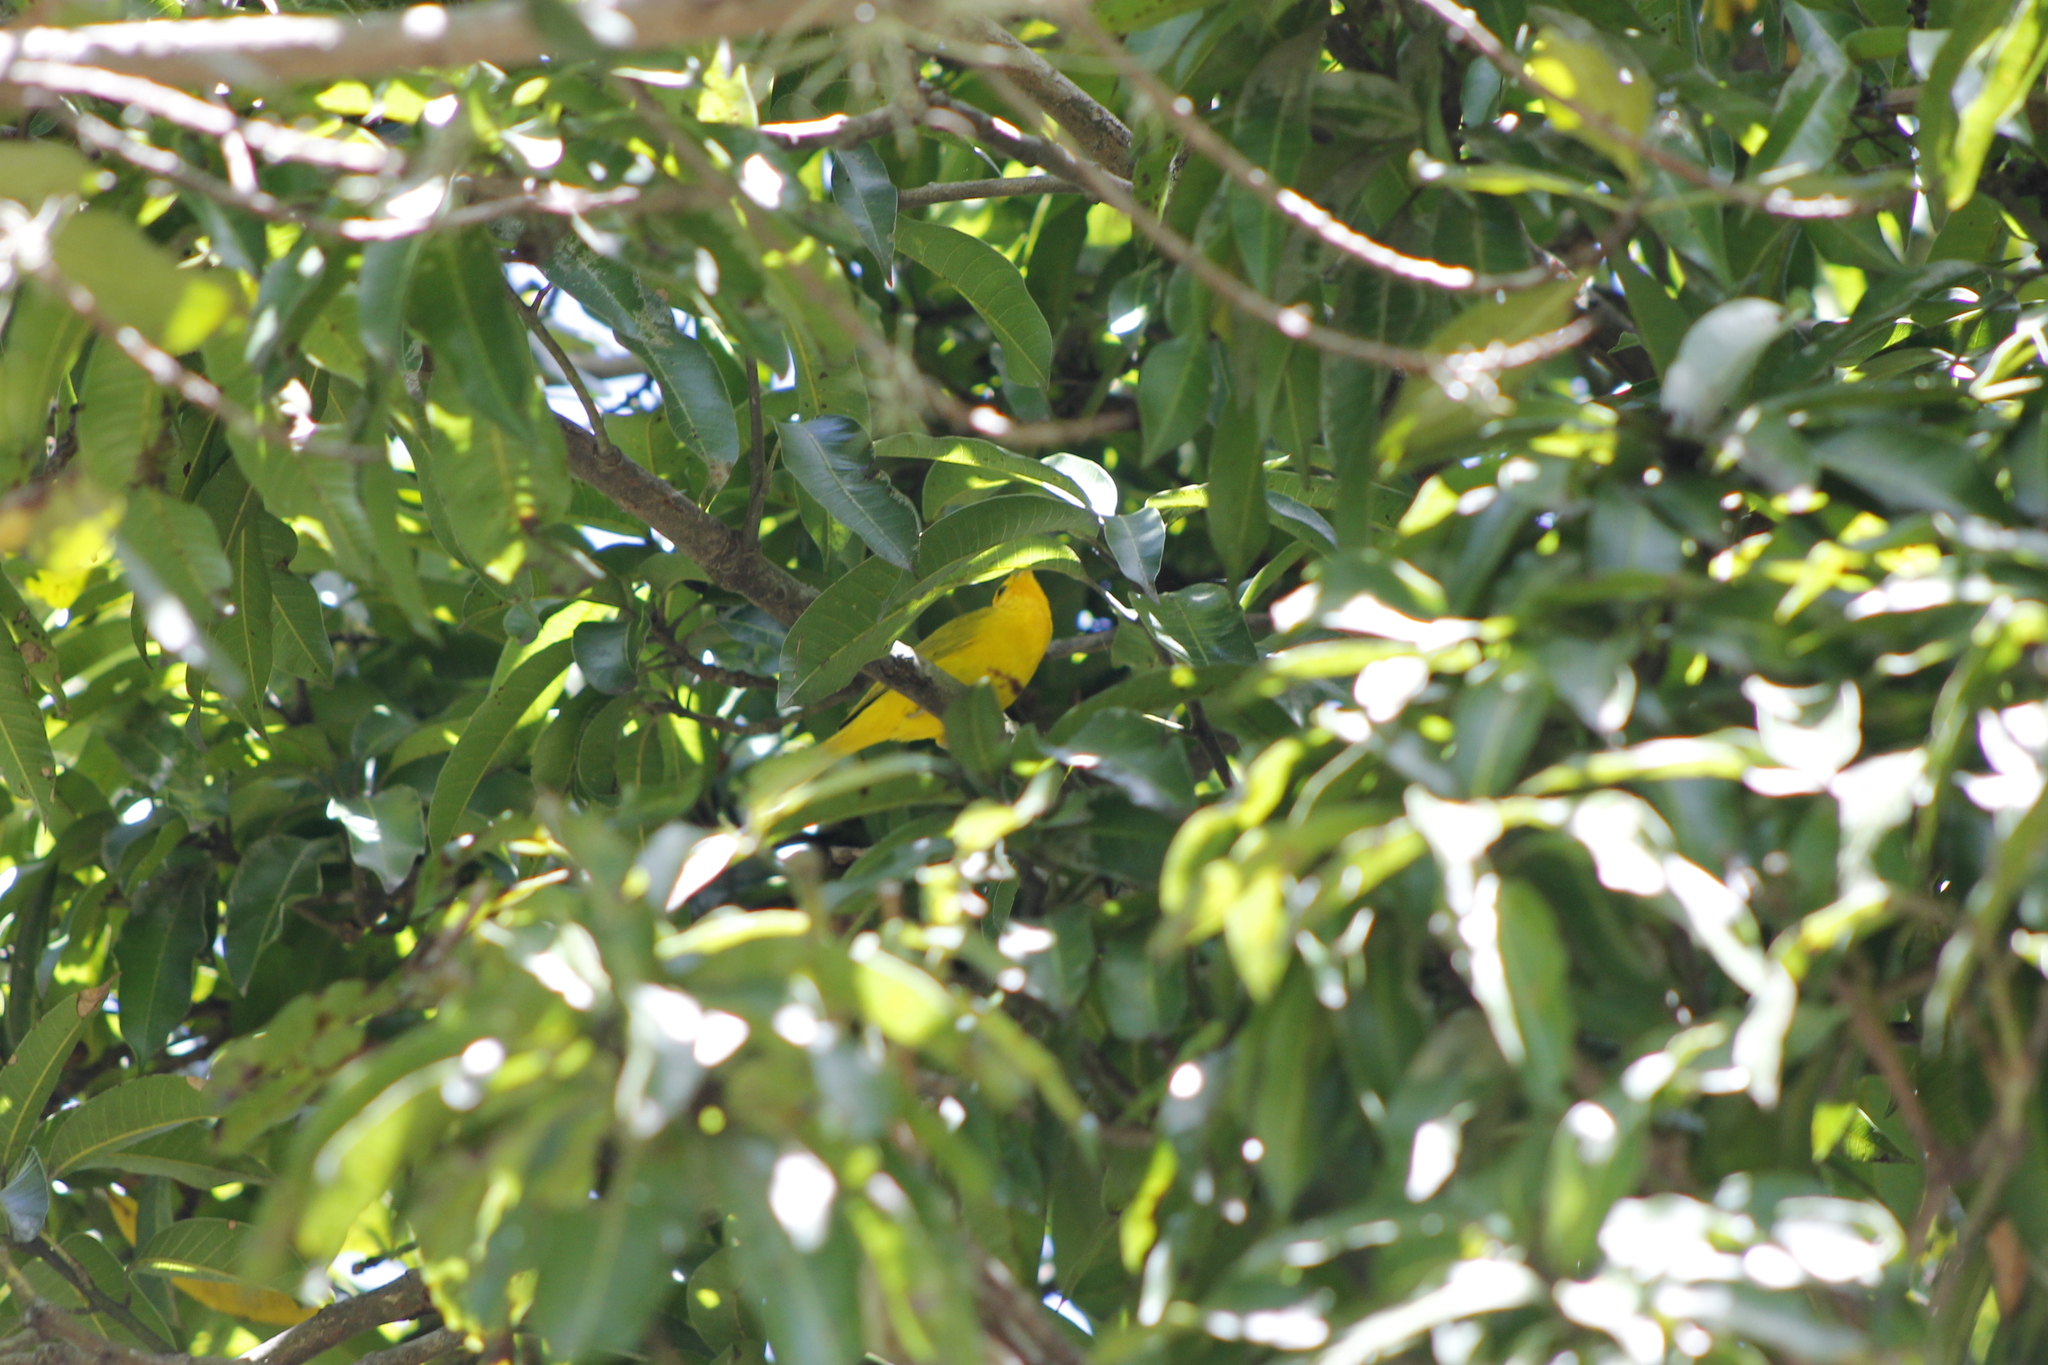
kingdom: Animalia
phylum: Chordata
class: Aves
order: Passeriformes
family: Thraupidae
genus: Sicalis
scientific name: Sicalis flaveola
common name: Saffron finch
